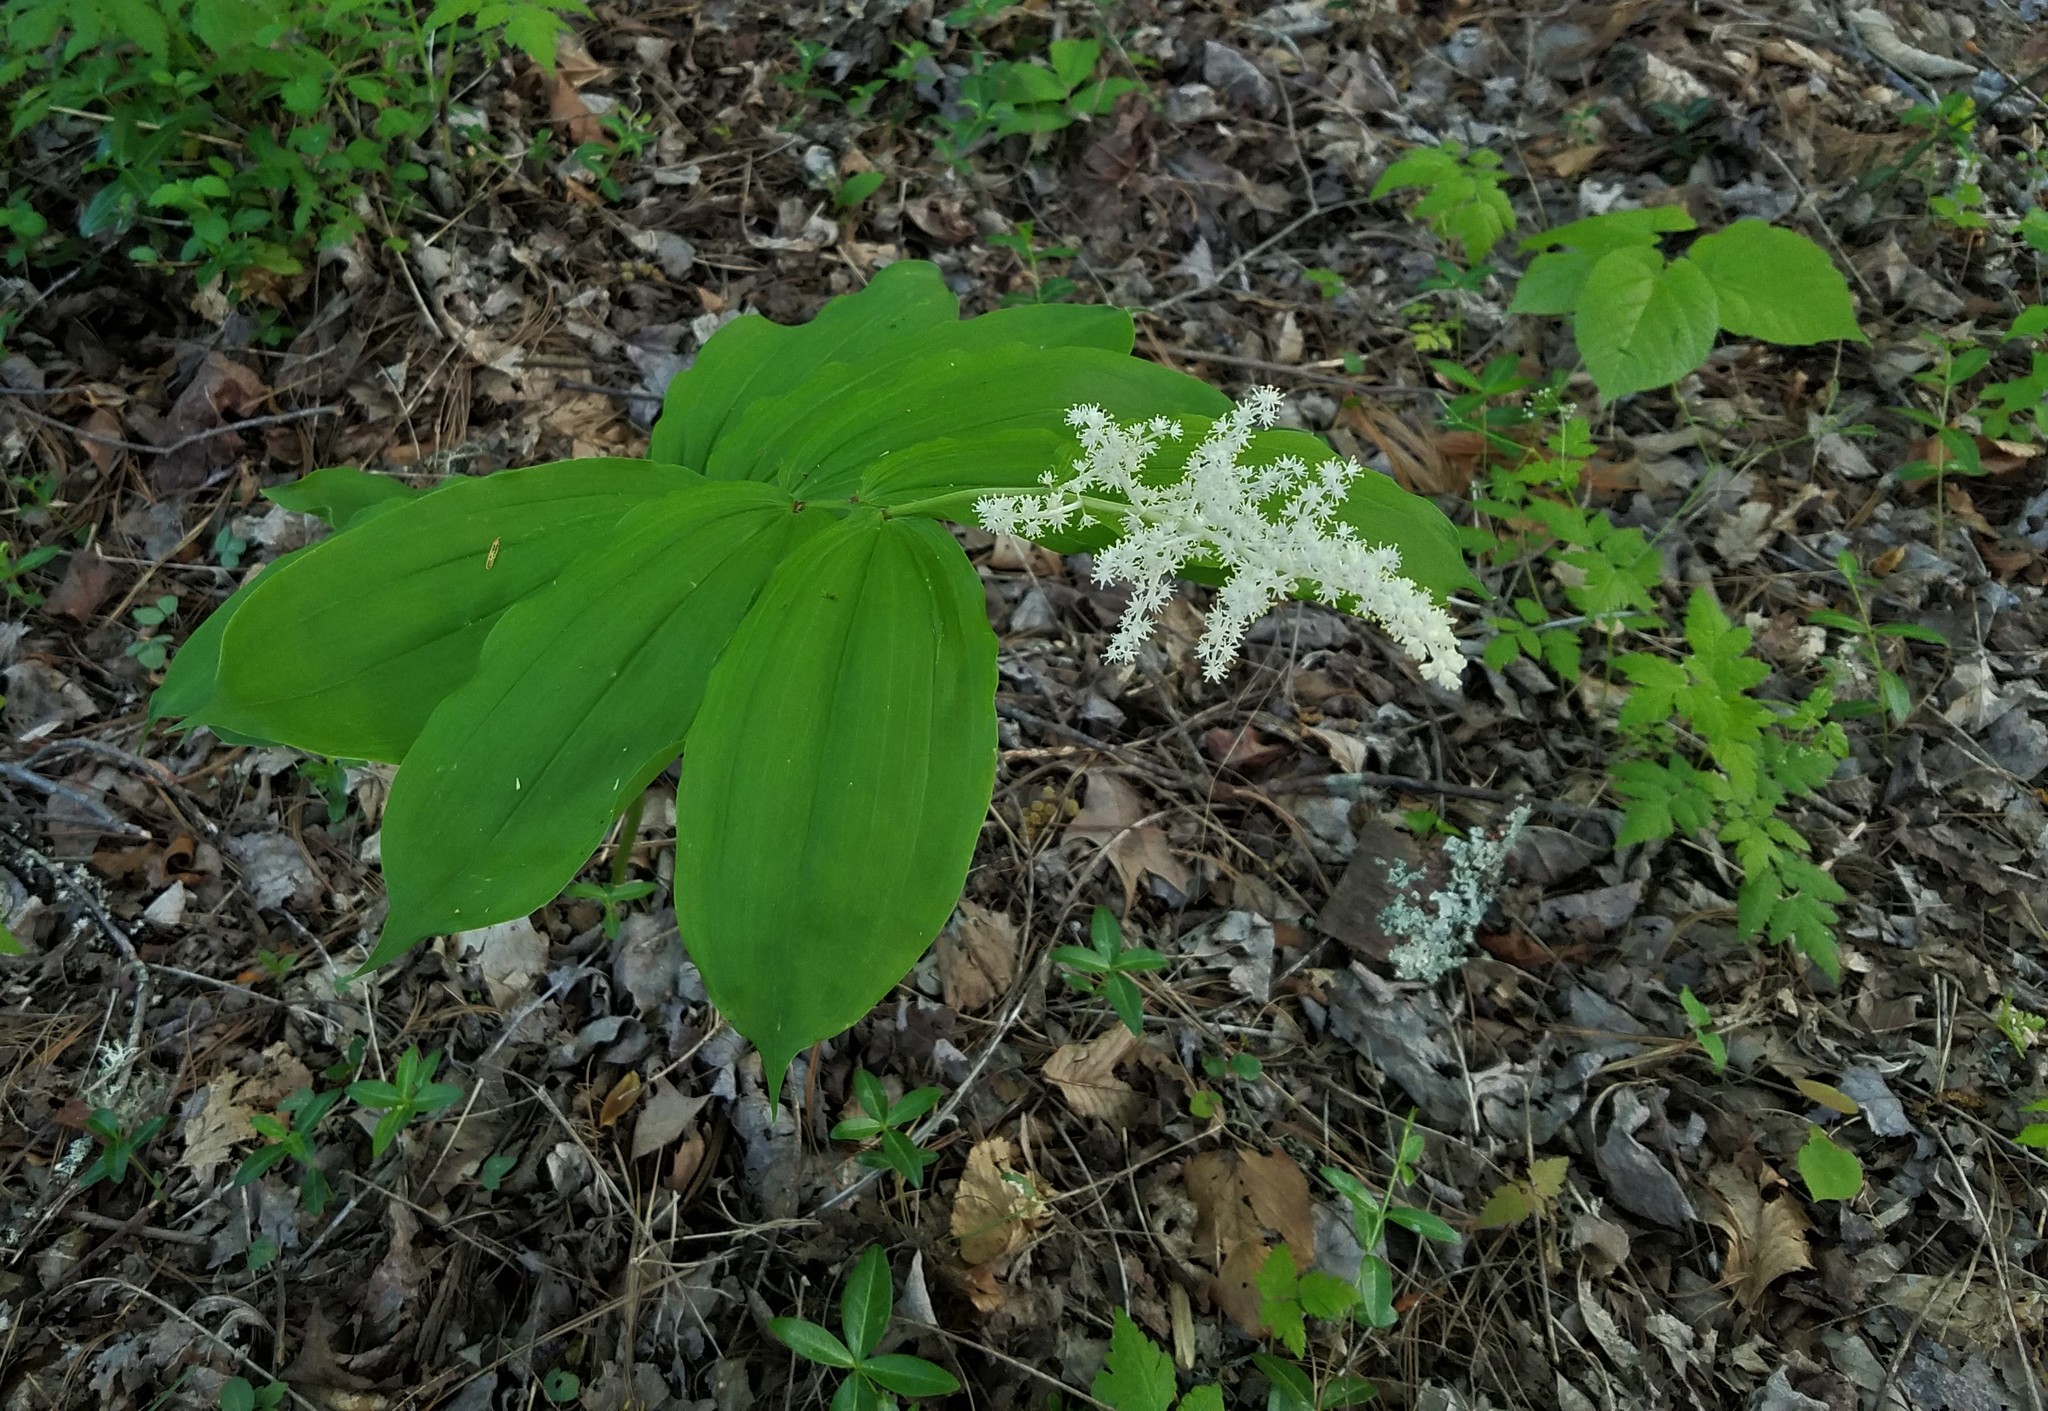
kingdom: Plantae
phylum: Tracheophyta
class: Liliopsida
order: Asparagales
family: Asparagaceae
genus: Maianthemum
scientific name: Maianthemum racemosum
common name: False spikenard
